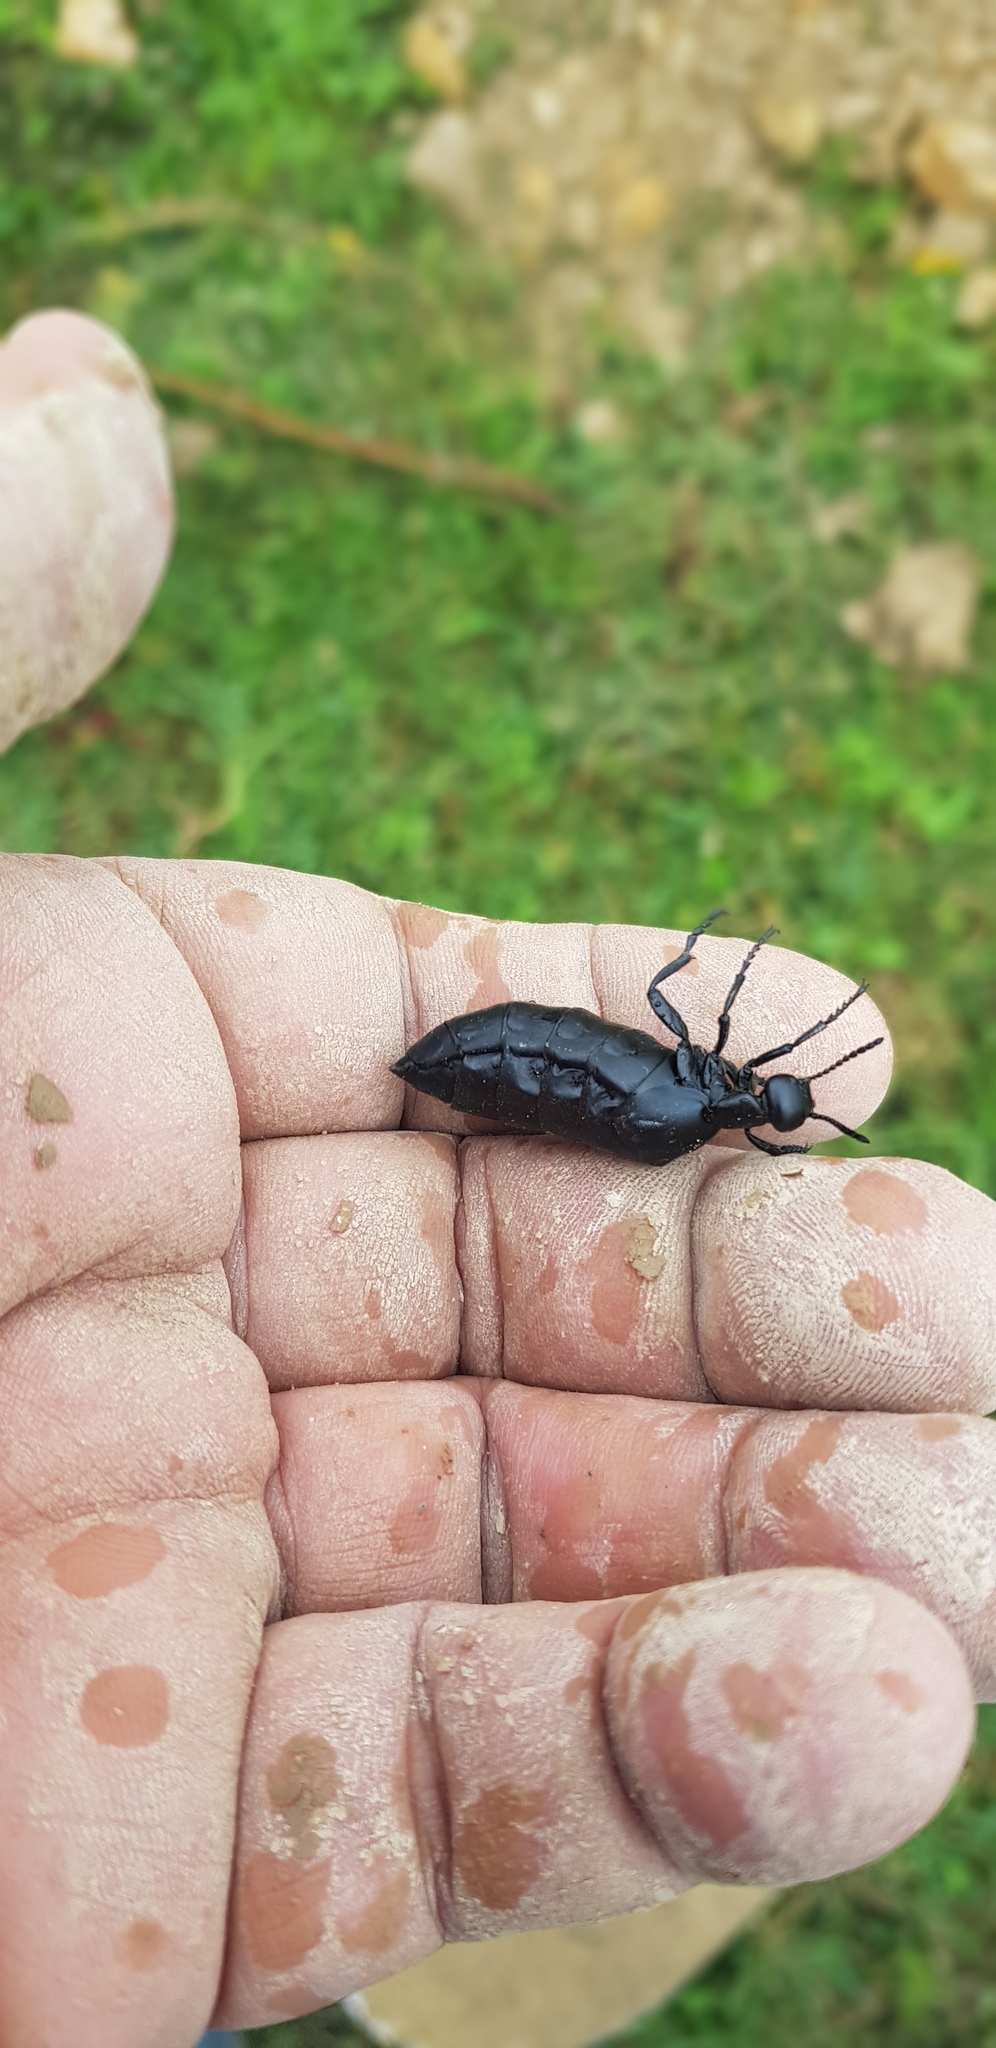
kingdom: Animalia
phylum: Arthropoda
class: Insecta
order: Coleoptera
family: Meloidae
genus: Meloe
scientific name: Meloe laevis
